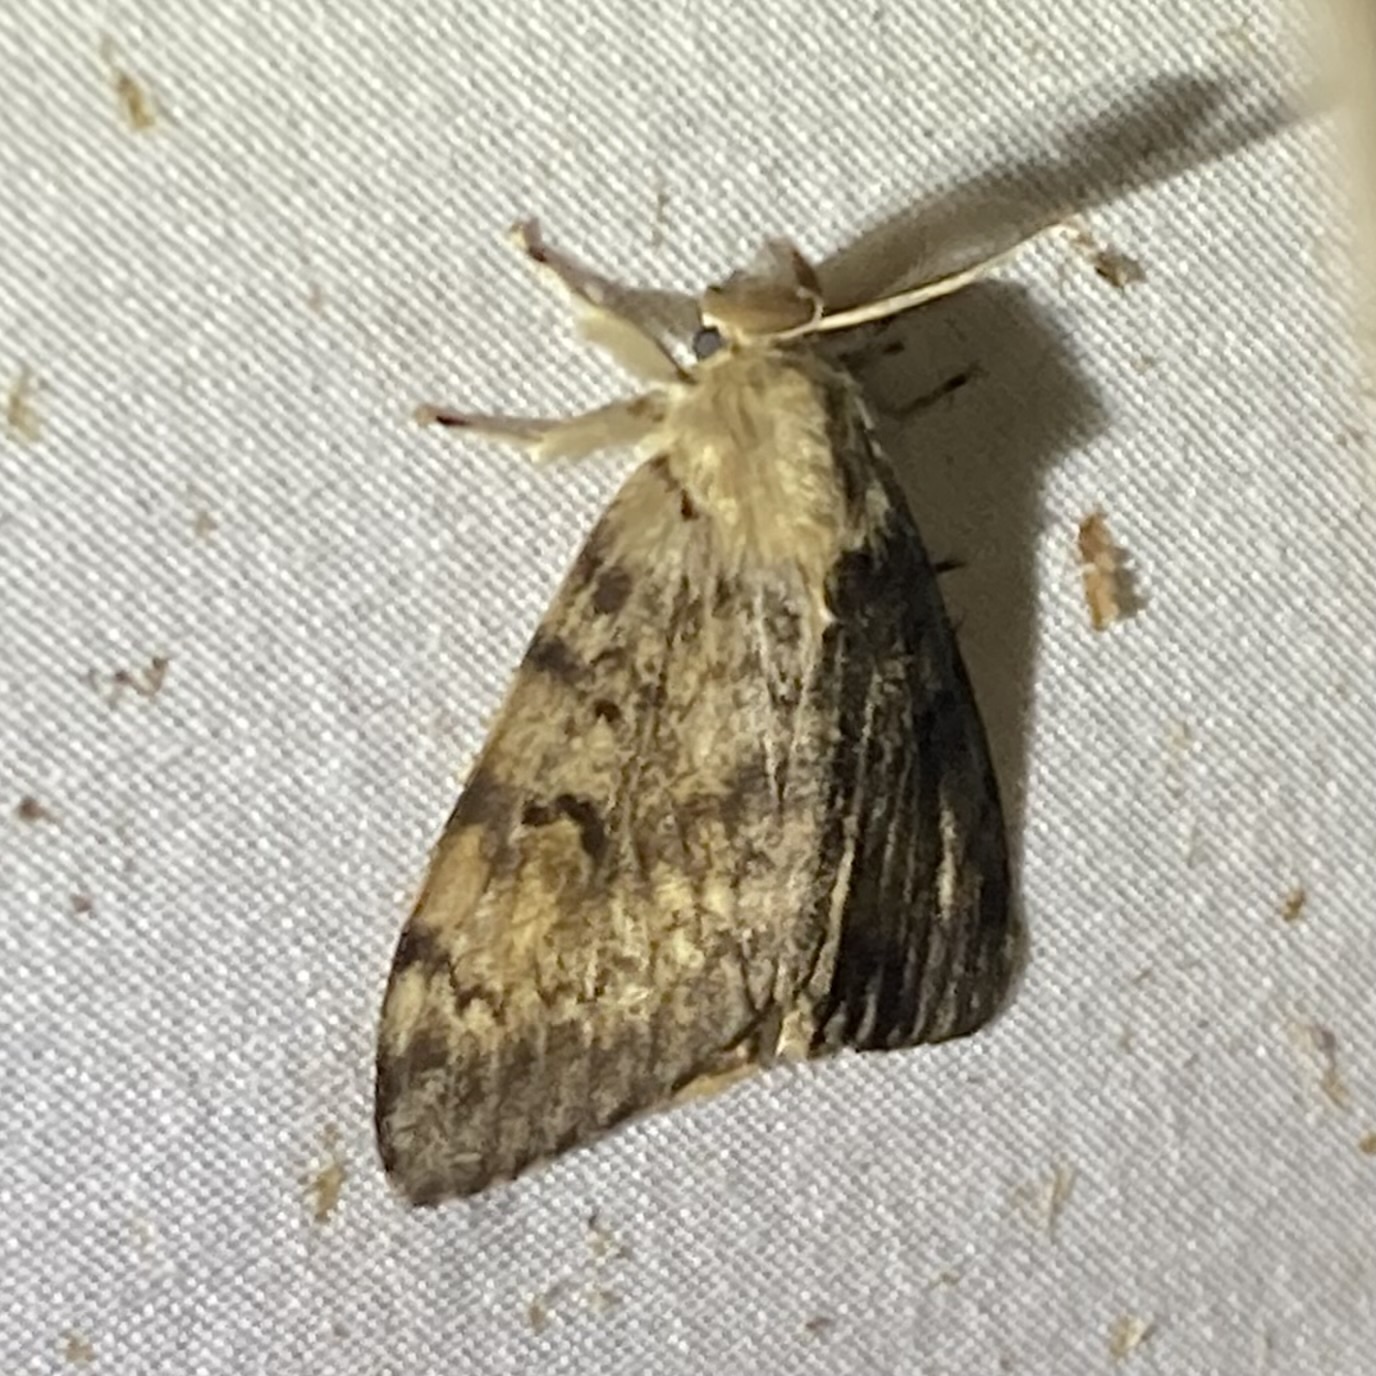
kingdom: Animalia
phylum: Arthropoda
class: Insecta
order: Lepidoptera
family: Erebidae
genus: Lymantria
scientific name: Lymantria dispar
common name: Gypsy moth
